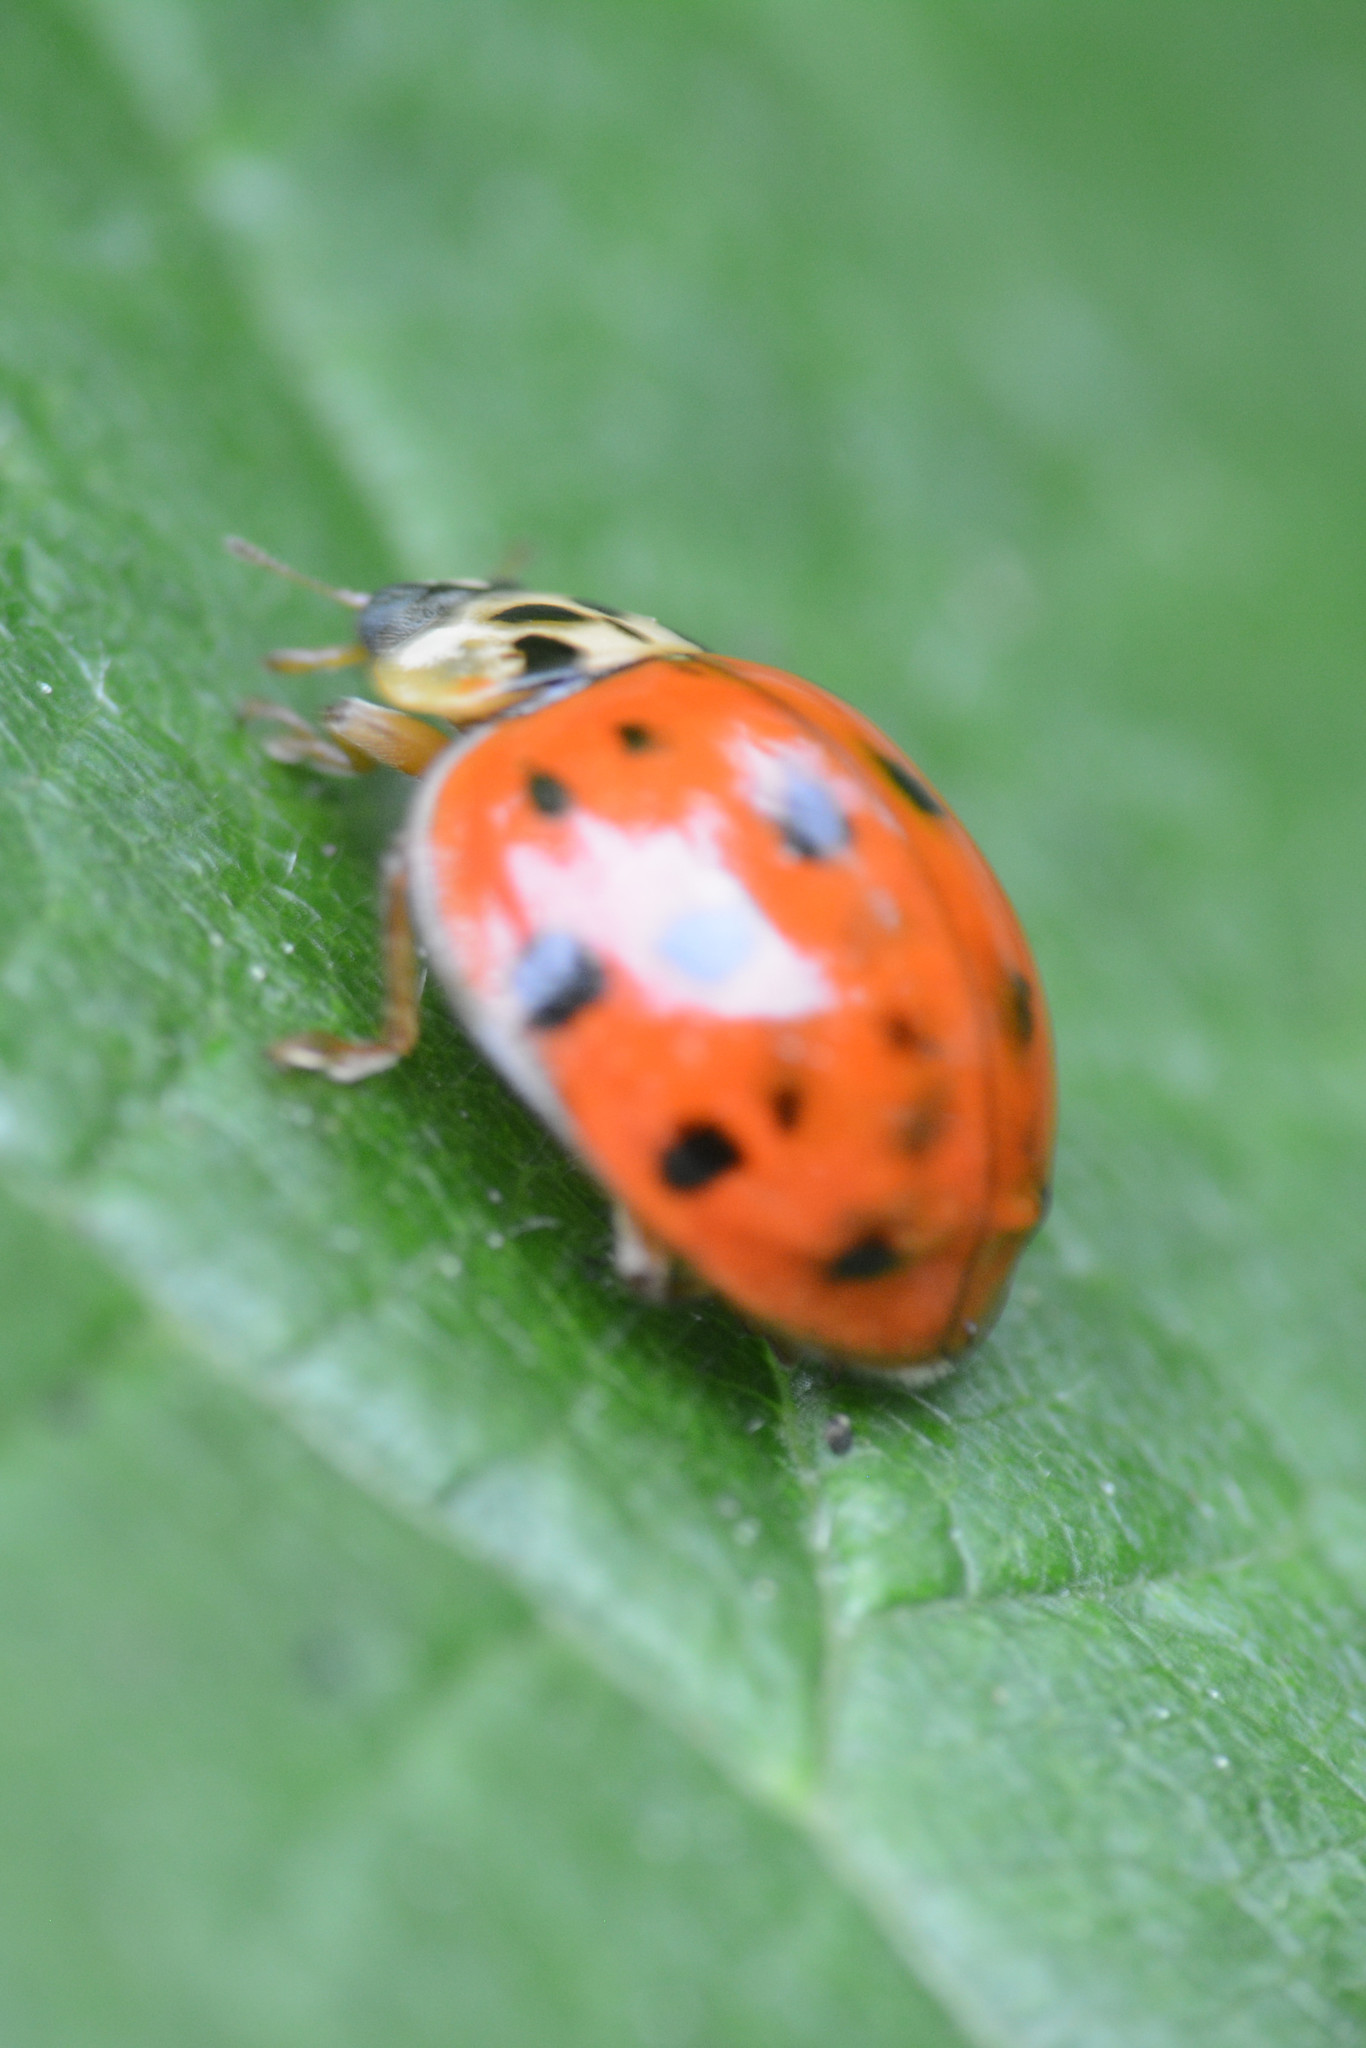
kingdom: Animalia
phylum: Arthropoda
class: Insecta
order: Coleoptera
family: Coccinellidae
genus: Harmonia
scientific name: Harmonia axyridis
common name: Harlequin ladybird
